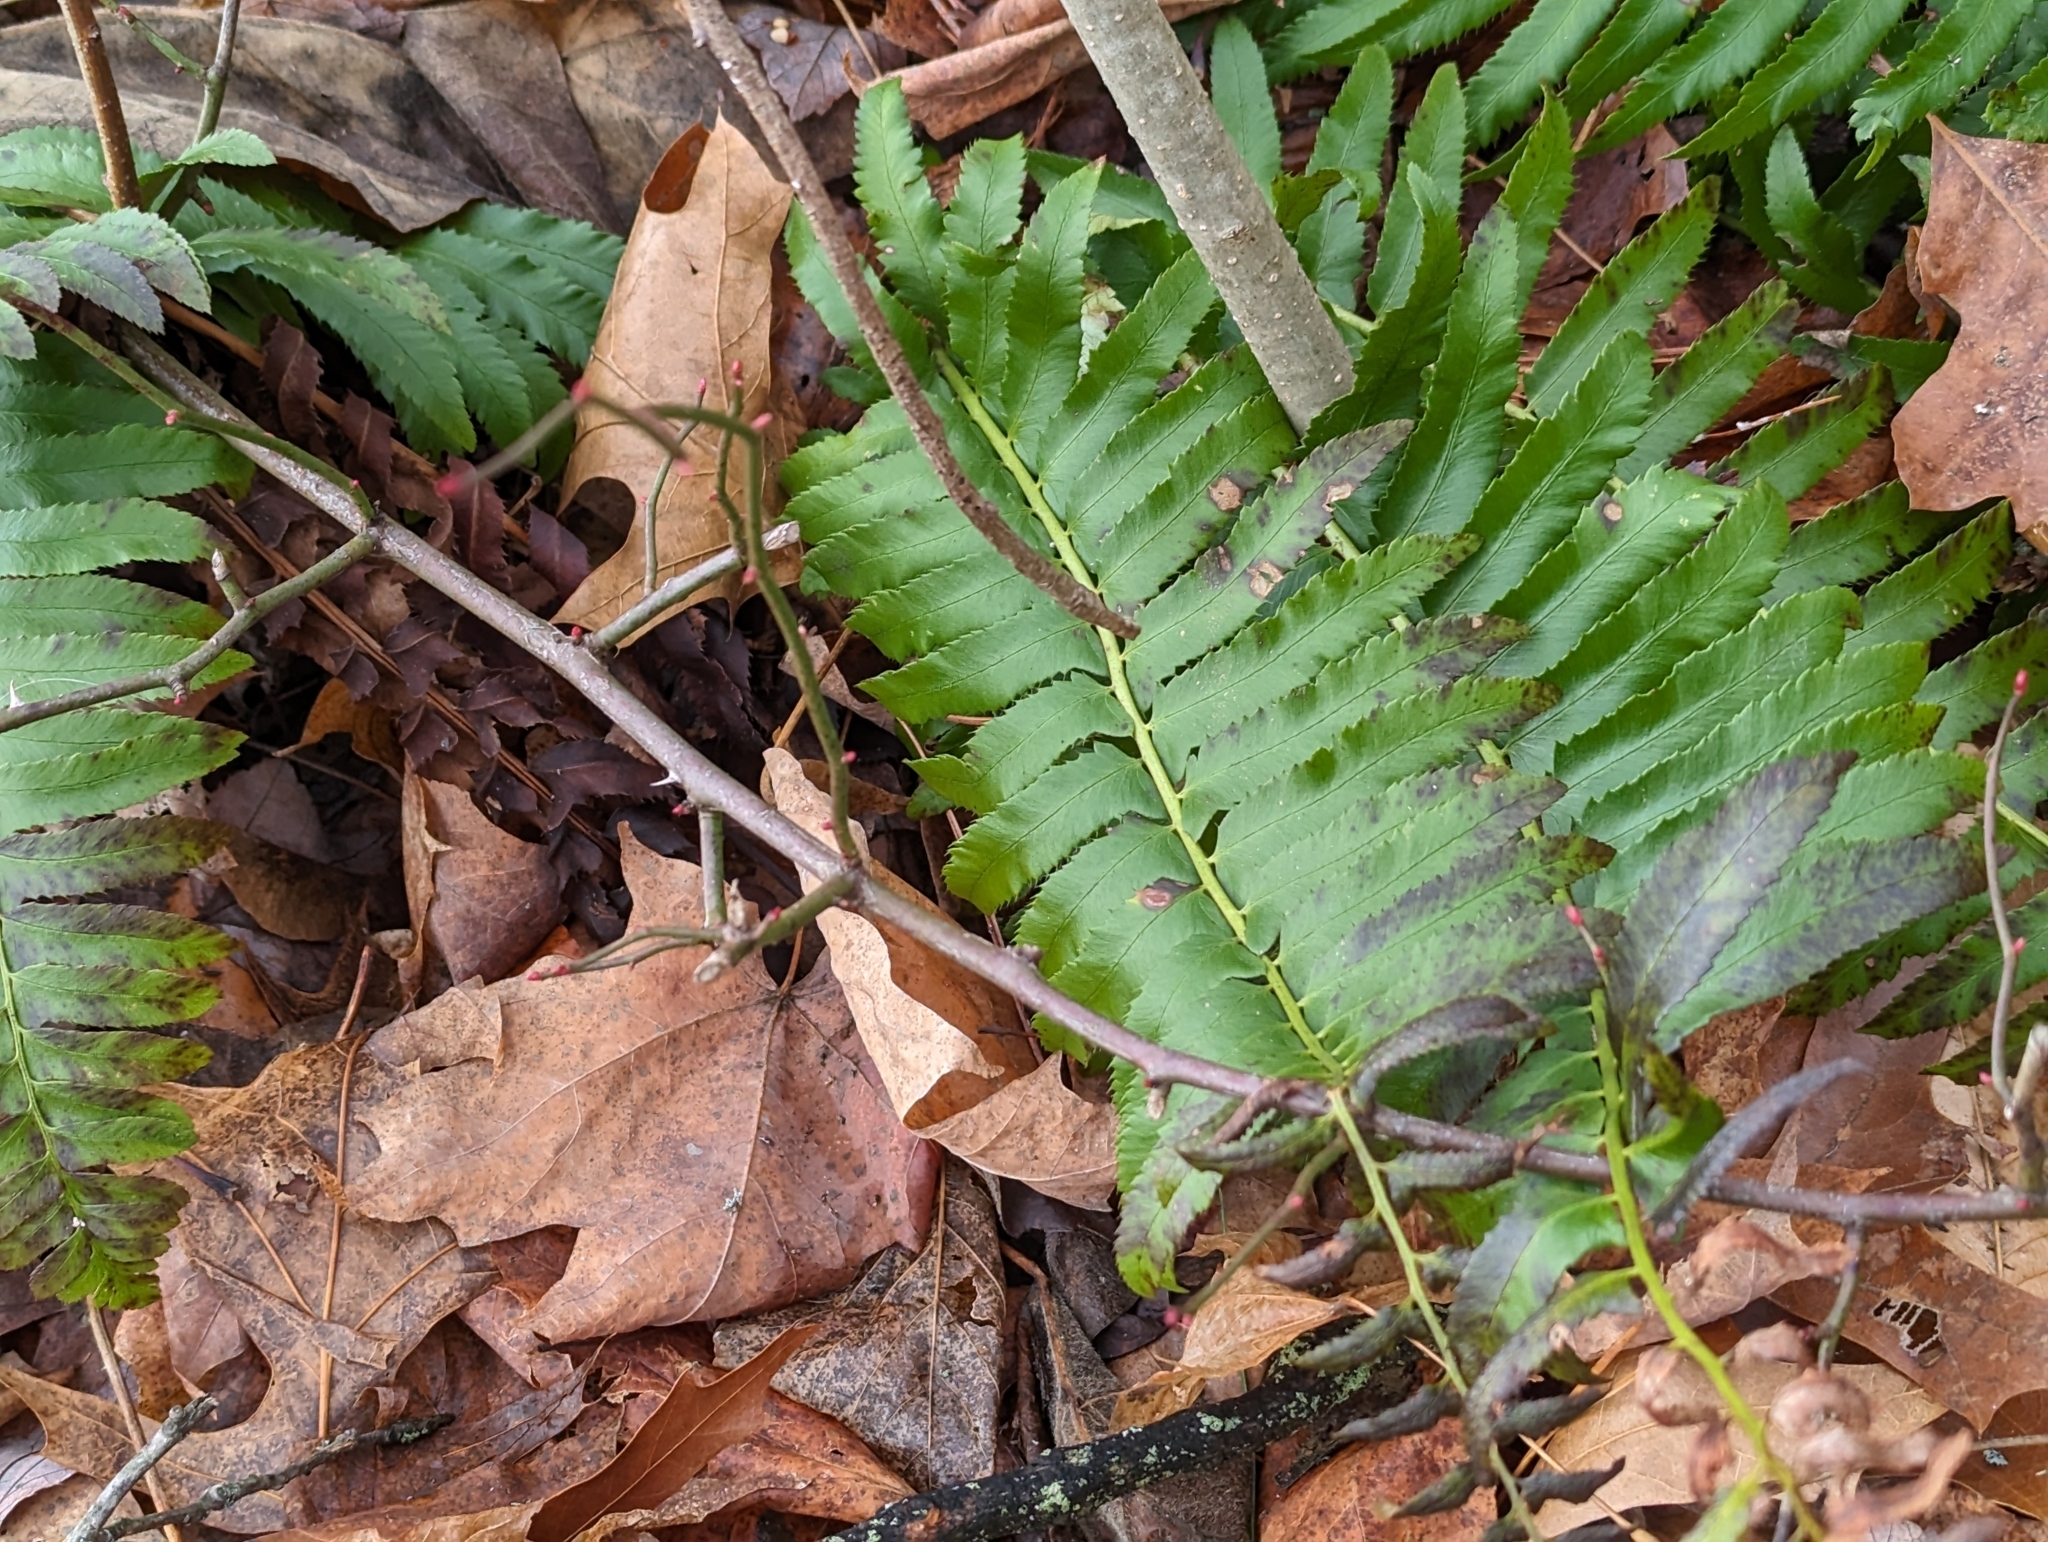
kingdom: Plantae
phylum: Tracheophyta
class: Polypodiopsida
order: Polypodiales
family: Dryopteridaceae
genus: Polystichum
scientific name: Polystichum acrostichoides
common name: Christmas fern
